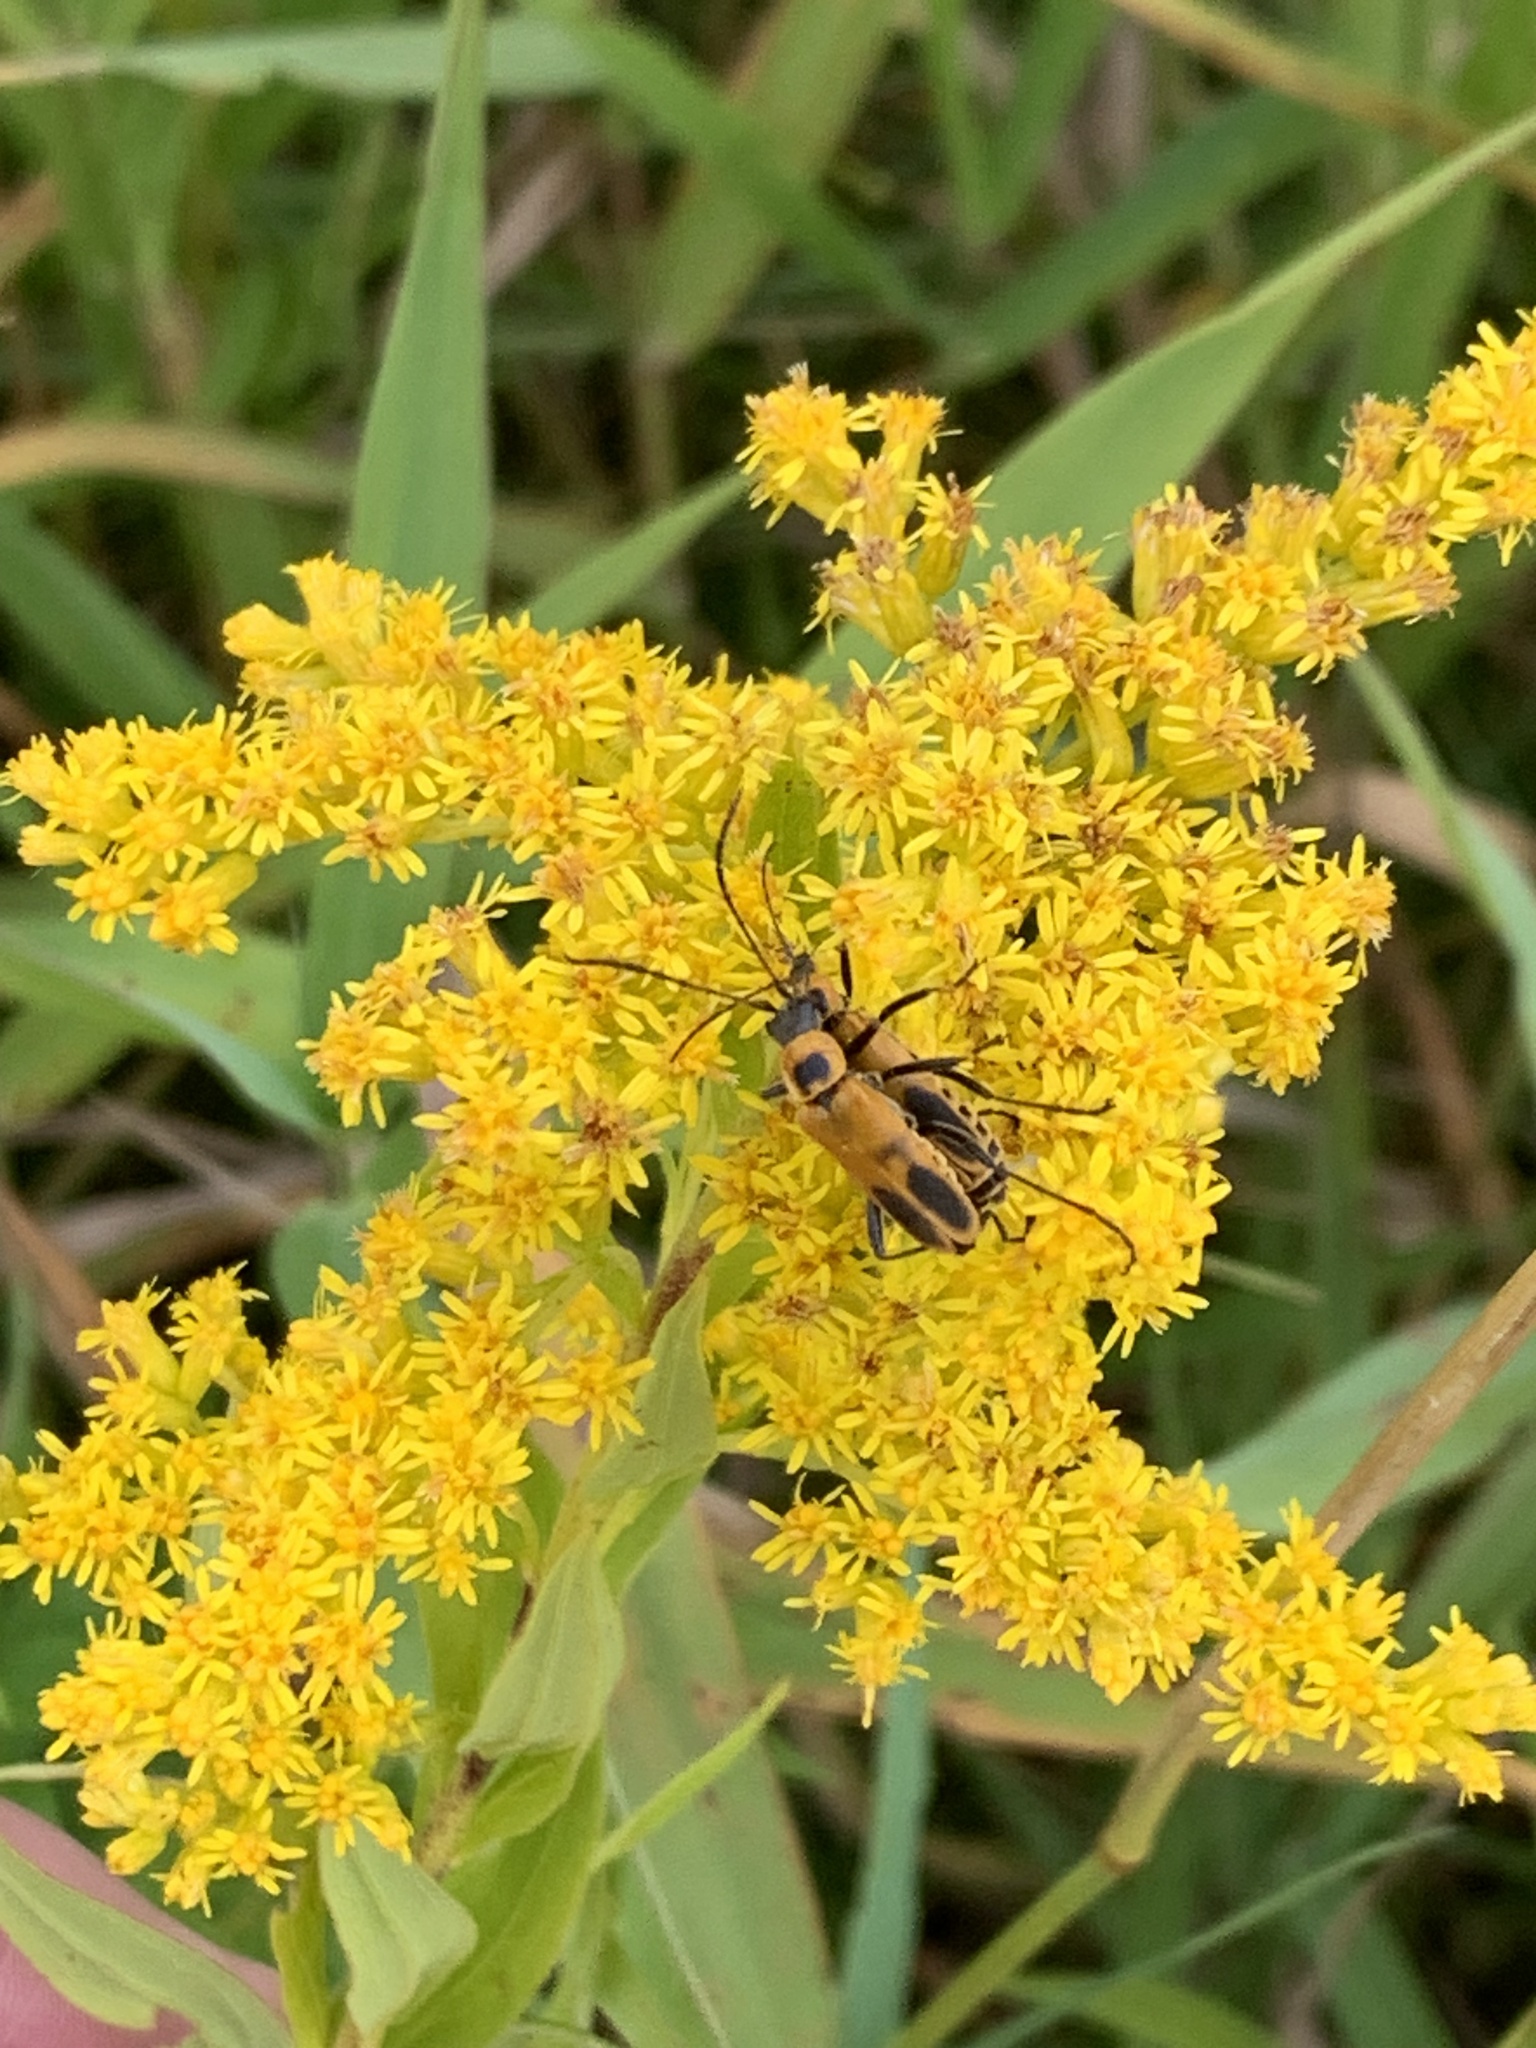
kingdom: Animalia
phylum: Arthropoda
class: Insecta
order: Coleoptera
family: Cantharidae
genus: Chauliognathus
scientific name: Chauliognathus pensylvanicus
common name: Goldenrod soldier beetle
